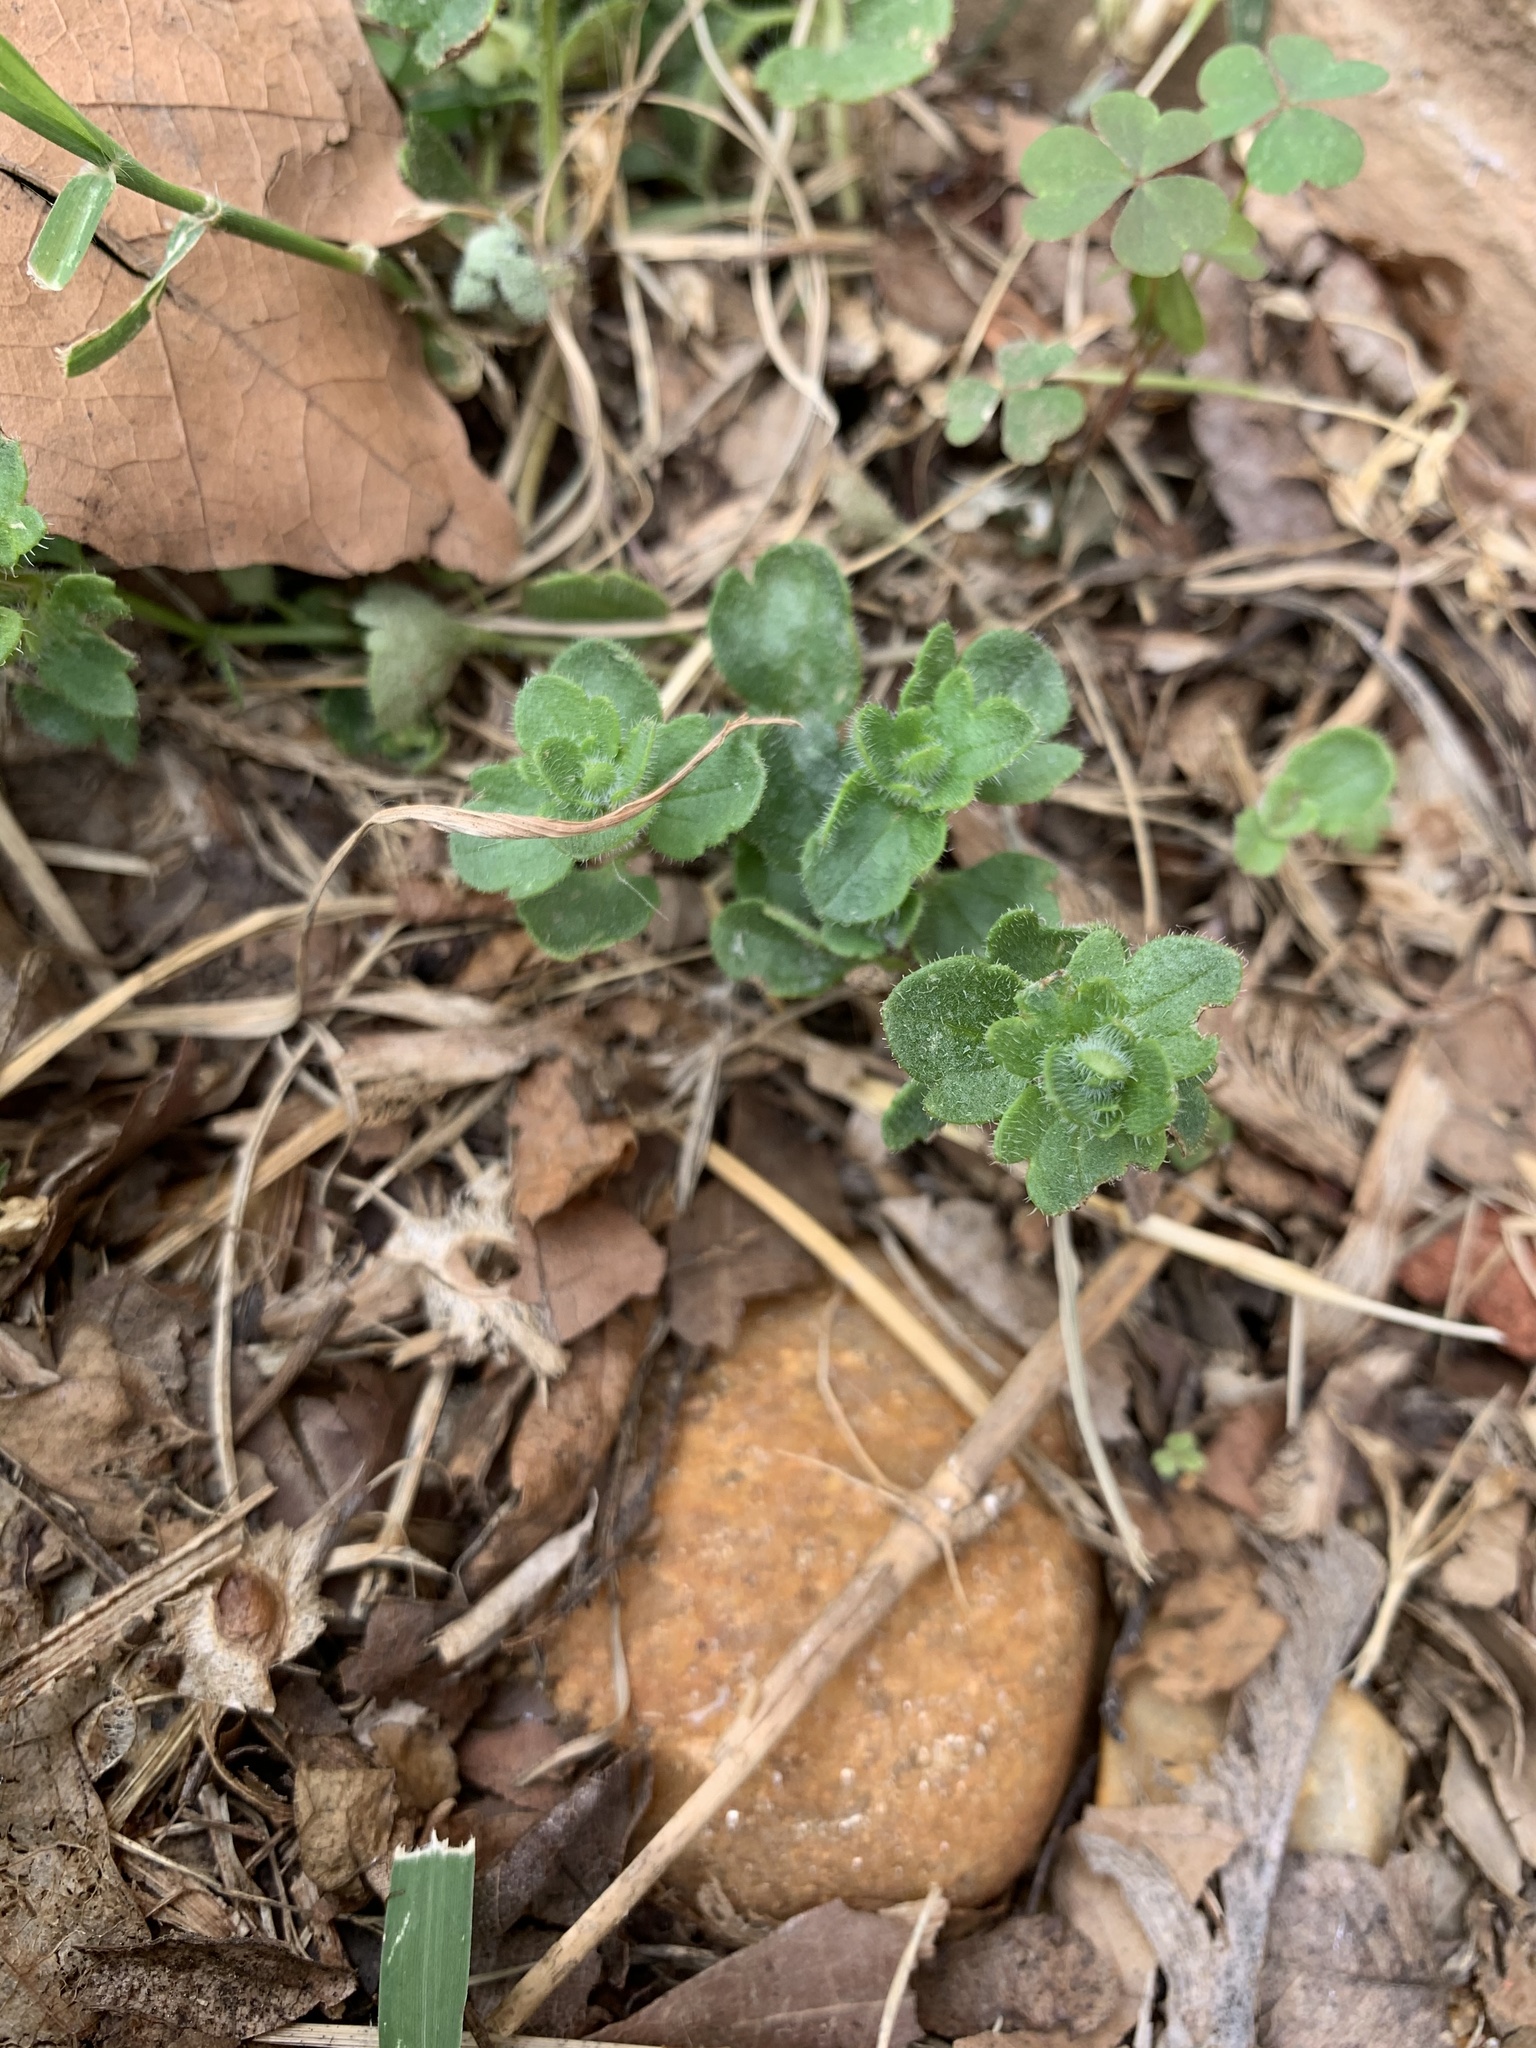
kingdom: Plantae
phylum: Tracheophyta
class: Magnoliopsida
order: Lamiales
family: Plantaginaceae
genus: Veronica
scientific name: Veronica hederifolia
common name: Ivy-leaved speedwell
